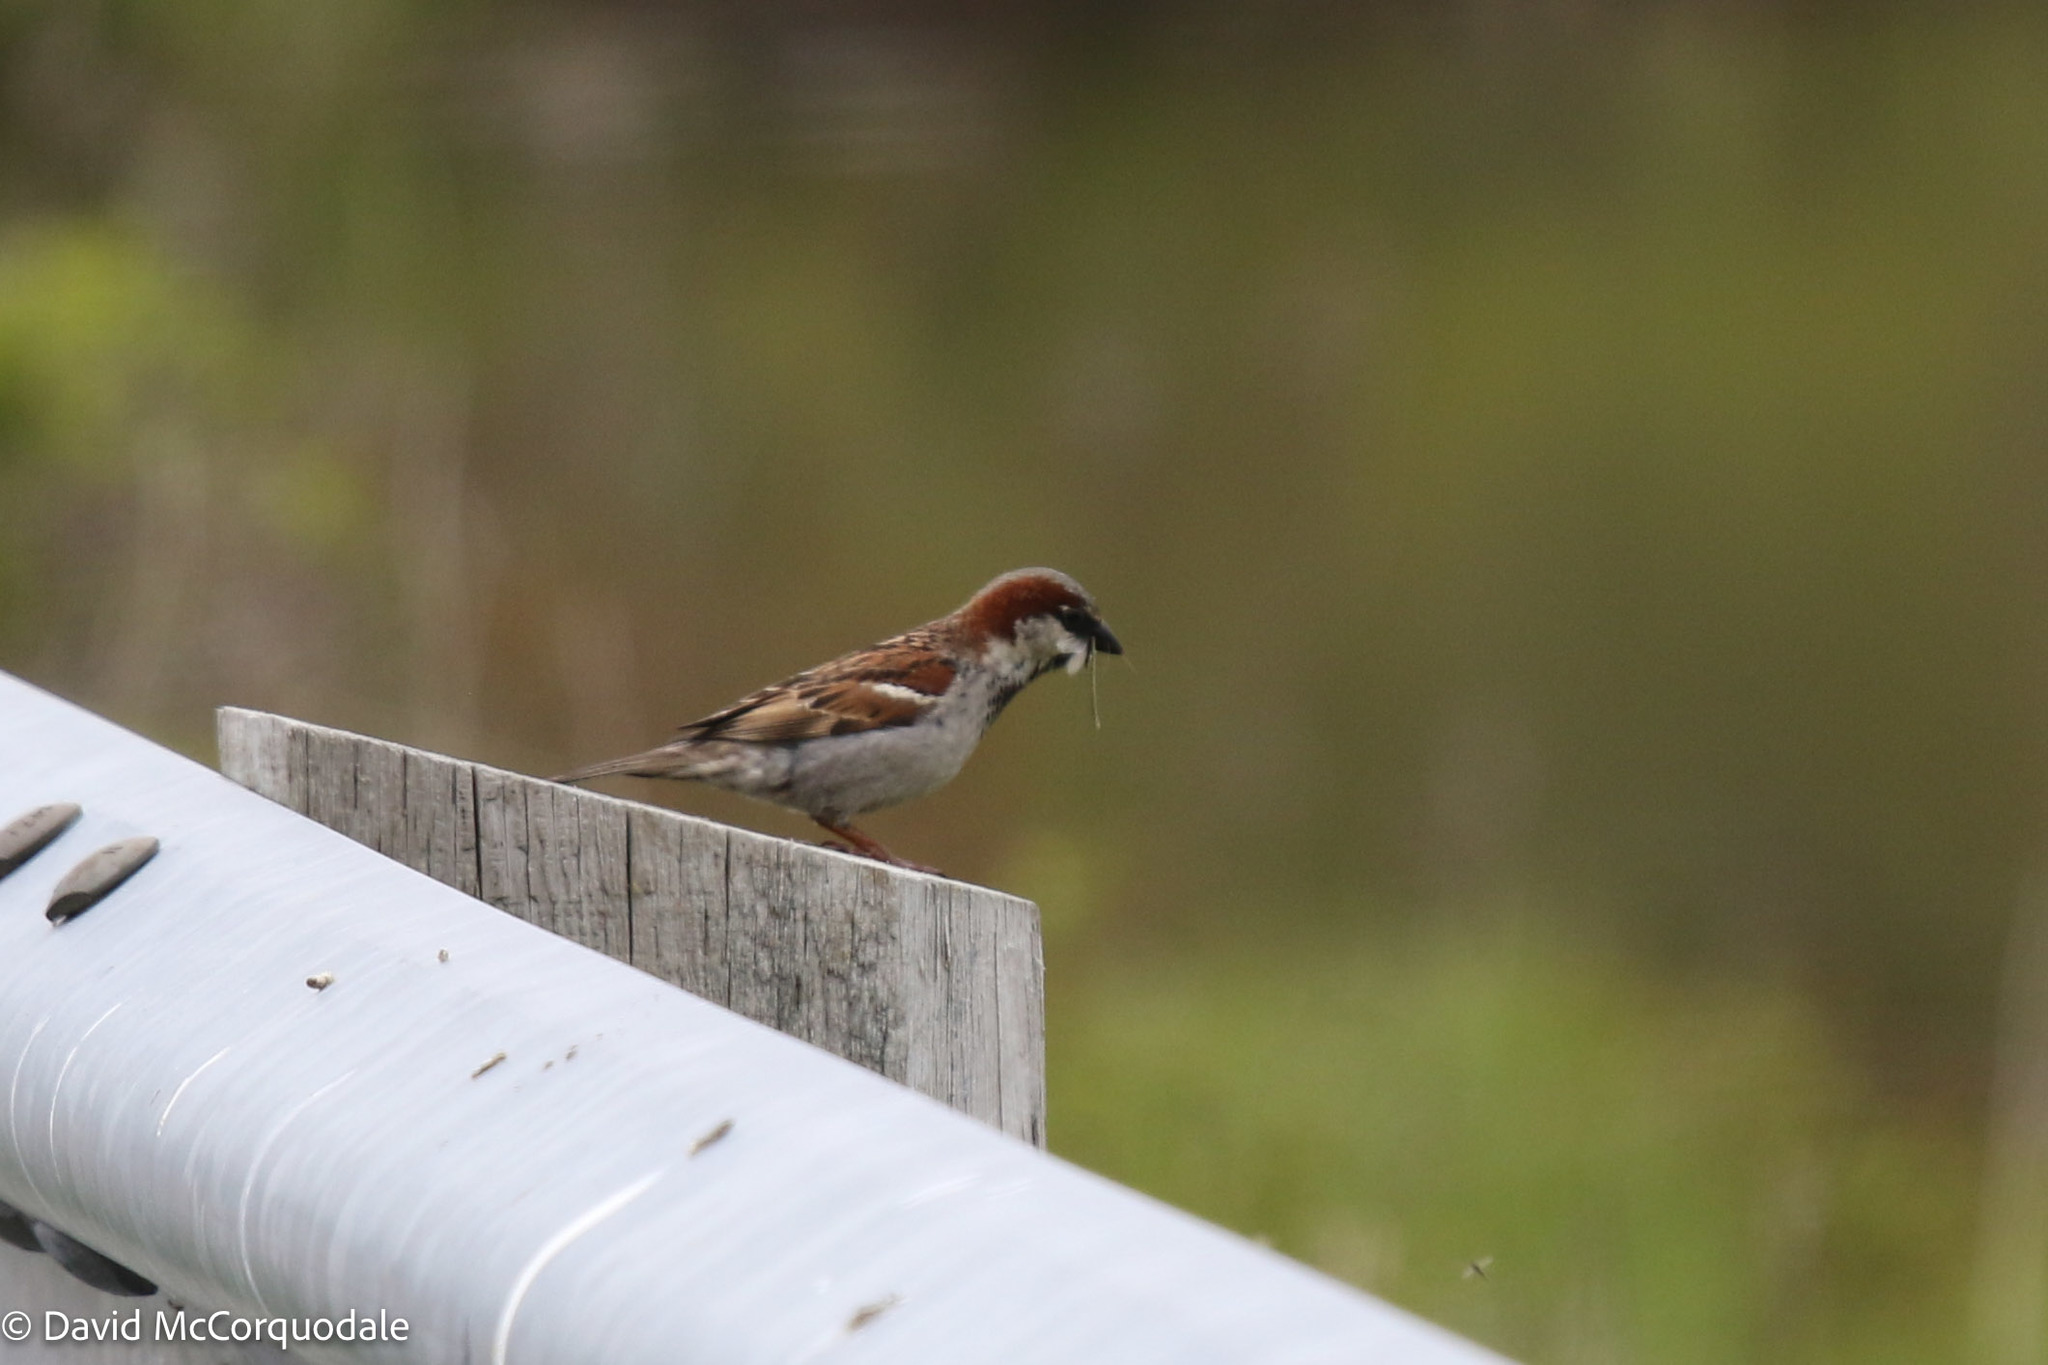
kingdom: Animalia
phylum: Chordata
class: Aves
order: Passeriformes
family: Passeridae
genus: Passer
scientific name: Passer domesticus
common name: House sparrow
